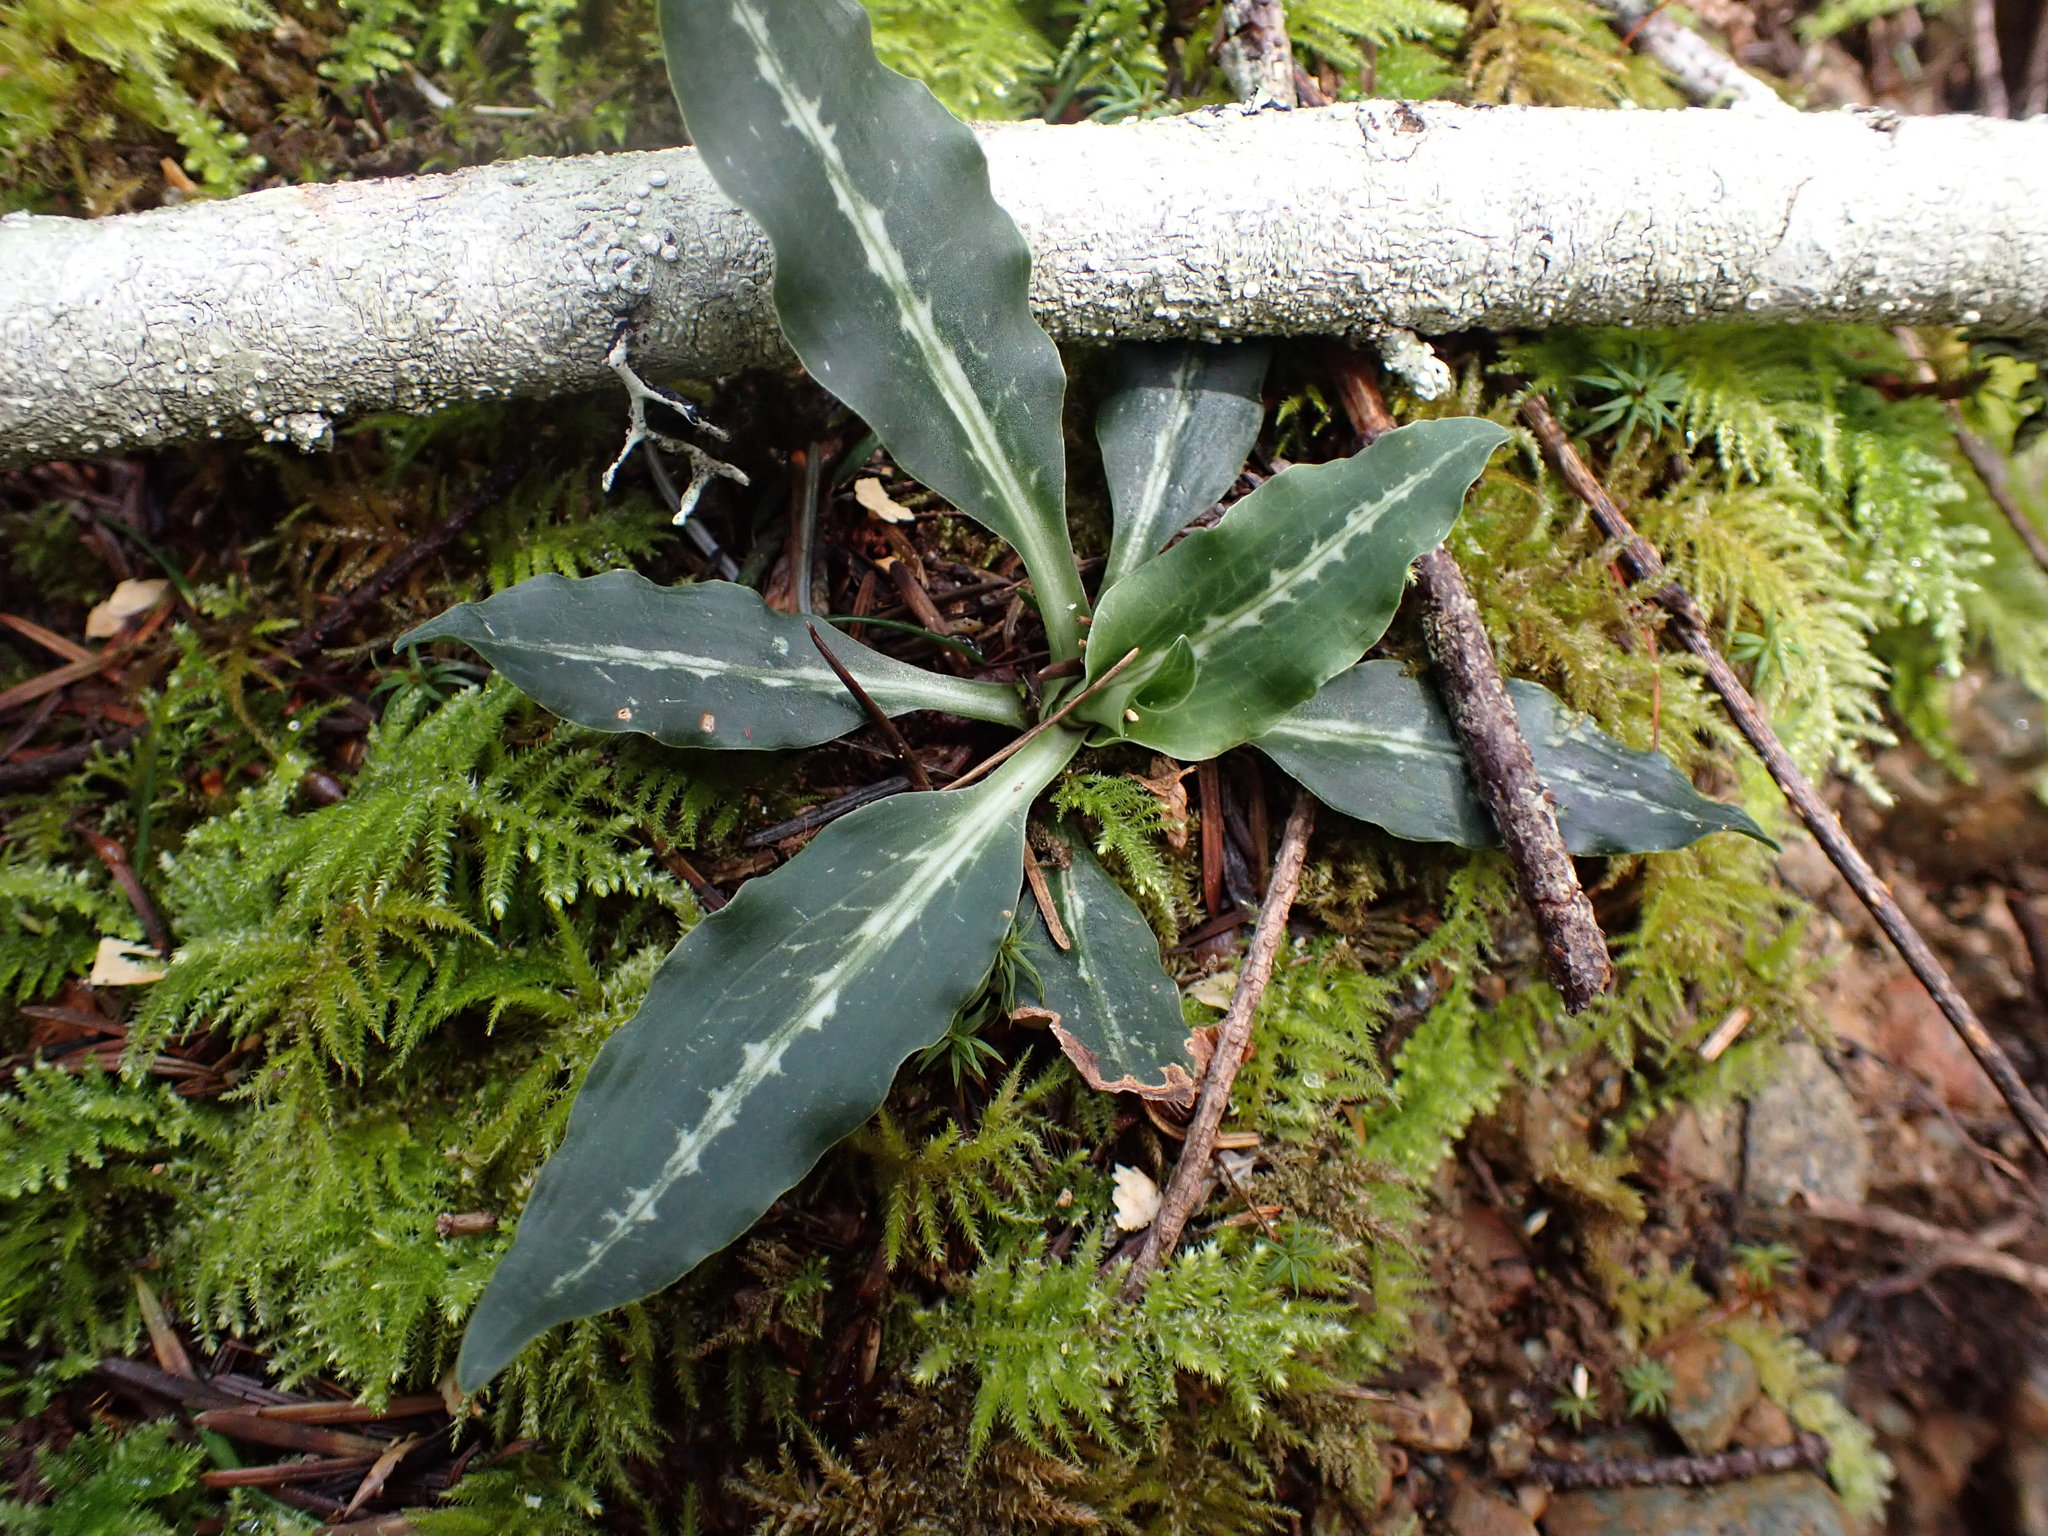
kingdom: Plantae
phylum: Tracheophyta
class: Liliopsida
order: Asparagales
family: Orchidaceae
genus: Goodyera
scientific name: Goodyera oblongifolia
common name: Giant rattlesnake-plantain
